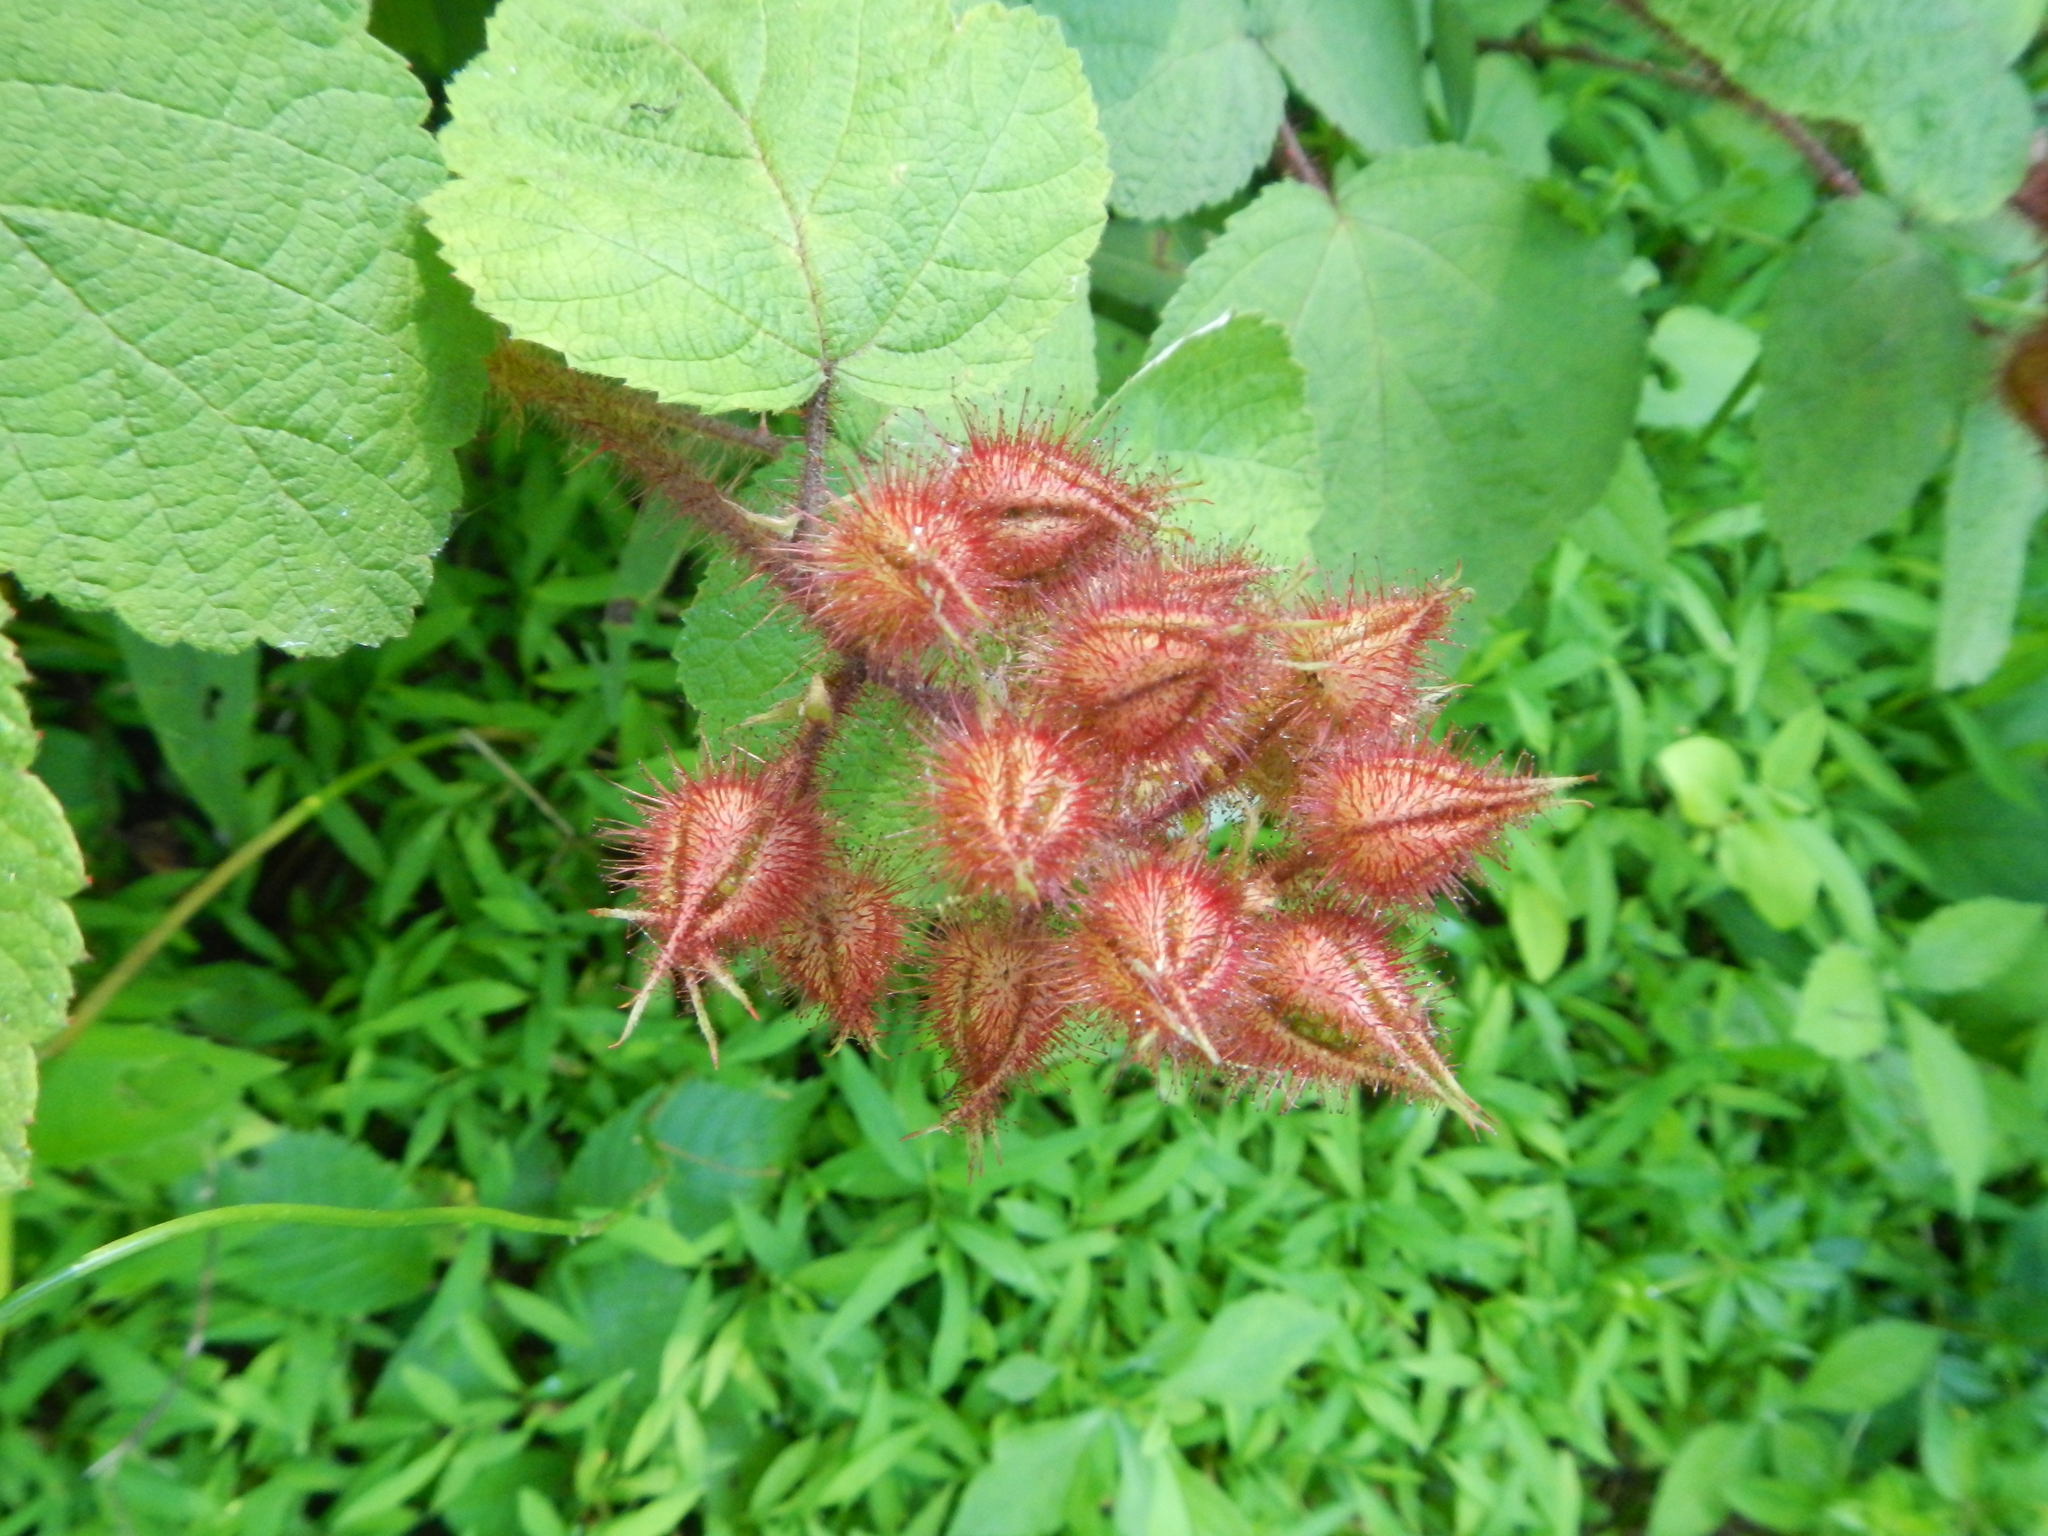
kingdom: Plantae
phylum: Tracheophyta
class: Magnoliopsida
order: Rosales
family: Rosaceae
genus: Rubus
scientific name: Rubus phoenicolasius
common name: Japanese wineberry
